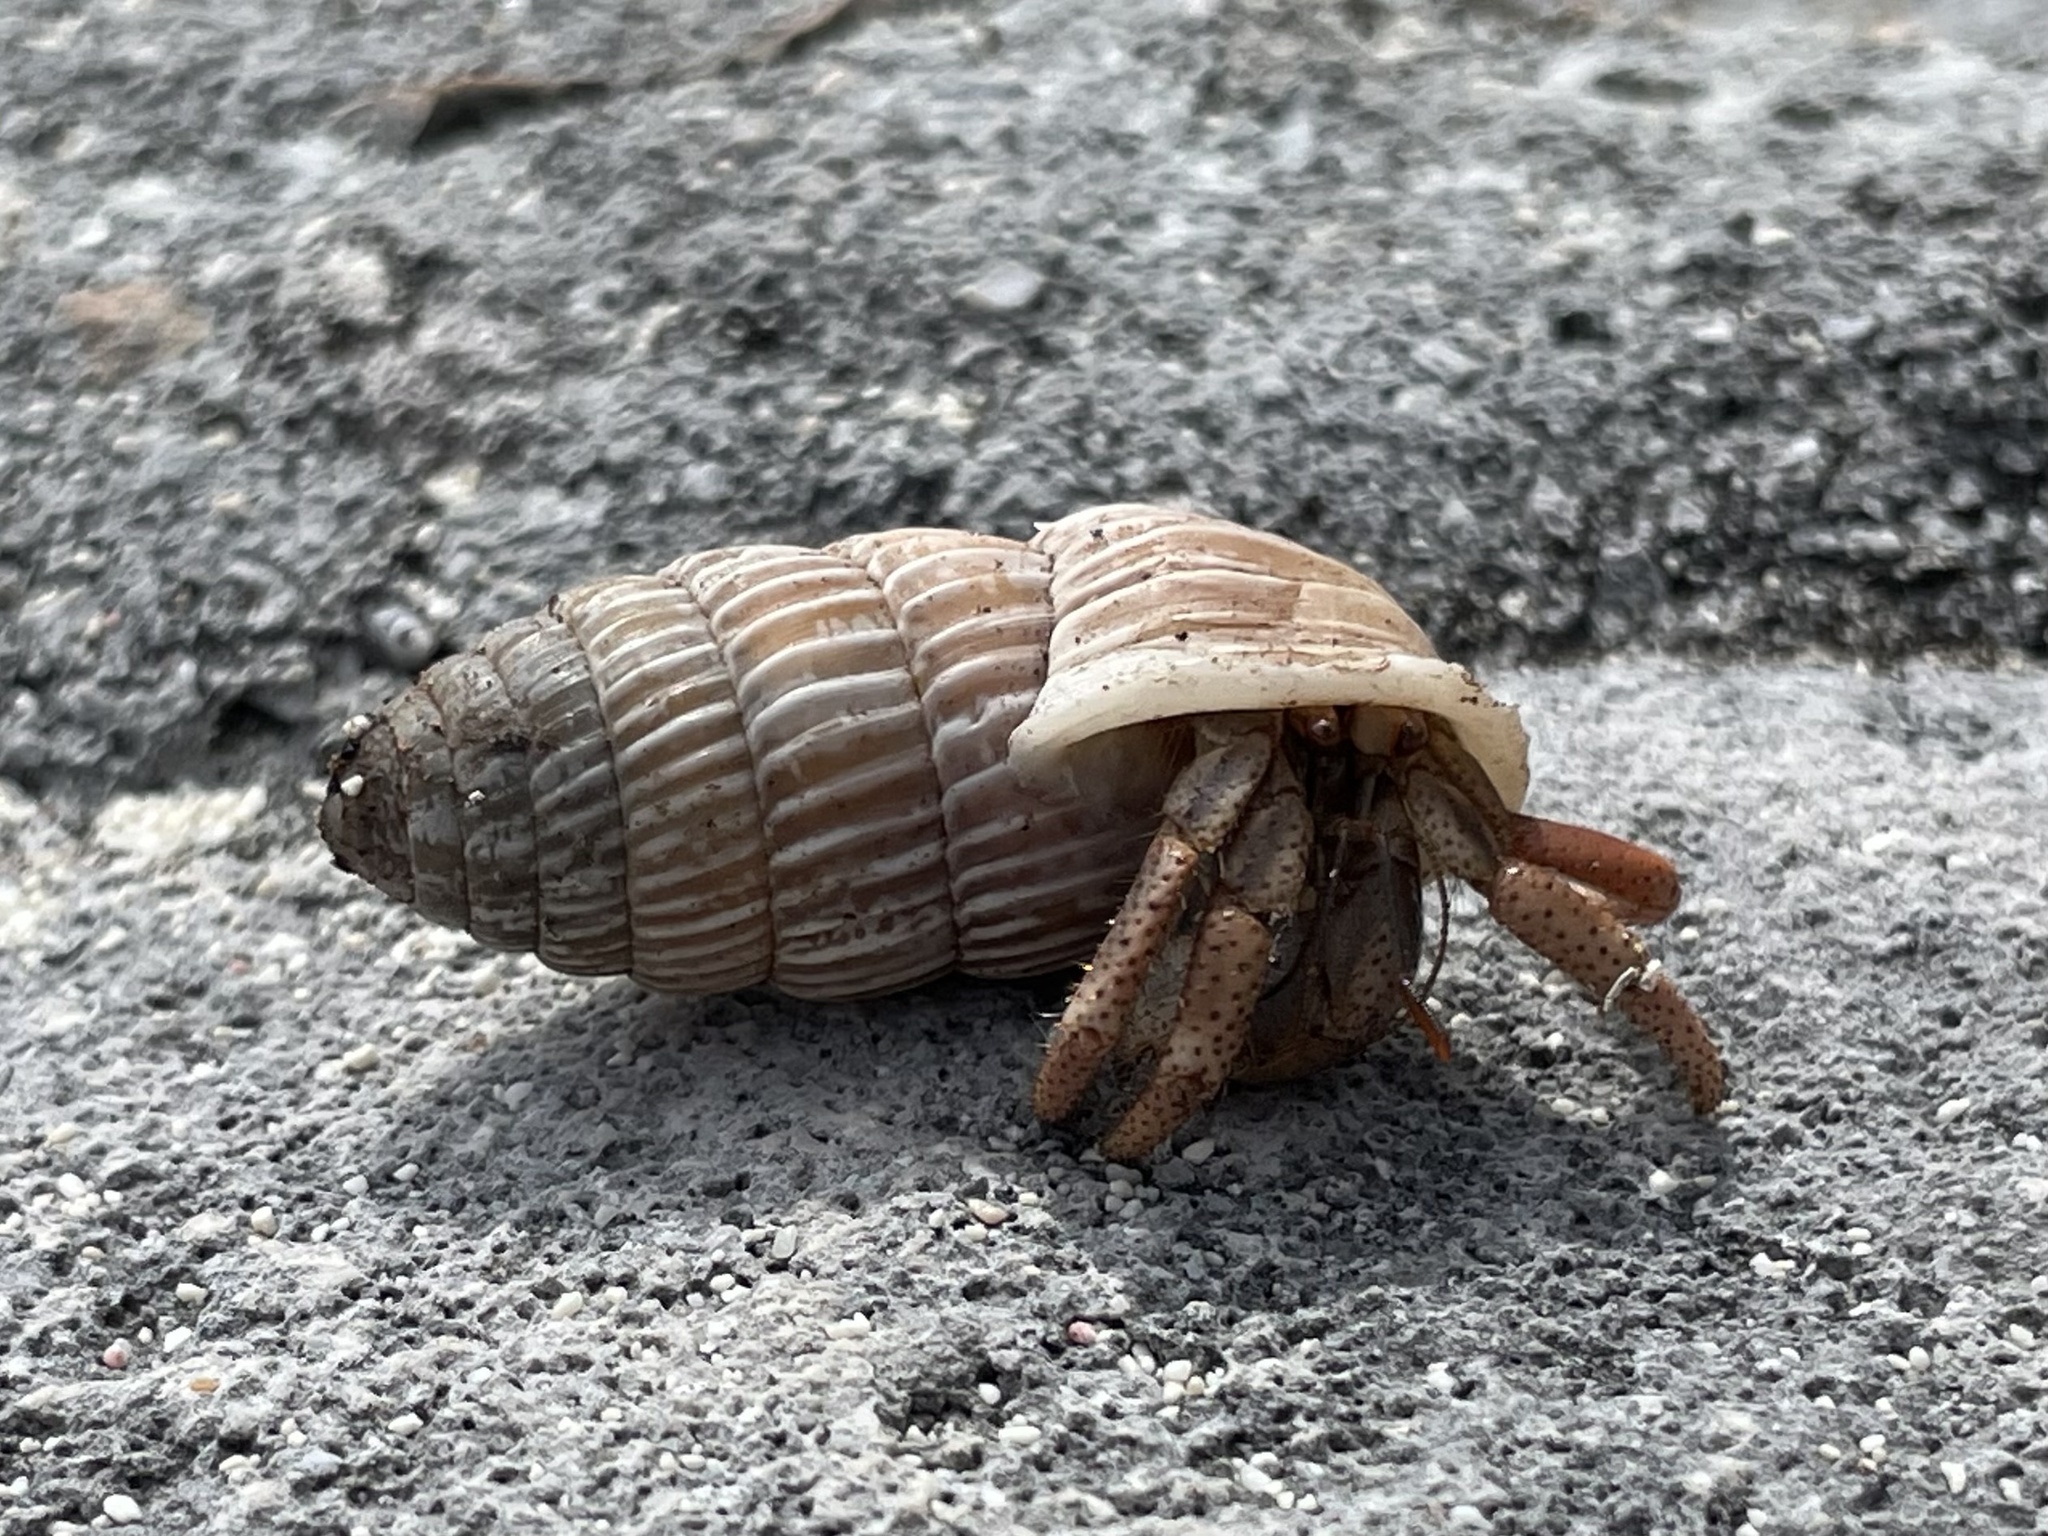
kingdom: Animalia
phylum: Arthropoda
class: Malacostraca
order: Decapoda
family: Coenobitidae
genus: Coenobita
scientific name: Coenobita clypeatus
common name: Caribbean hermit crab
